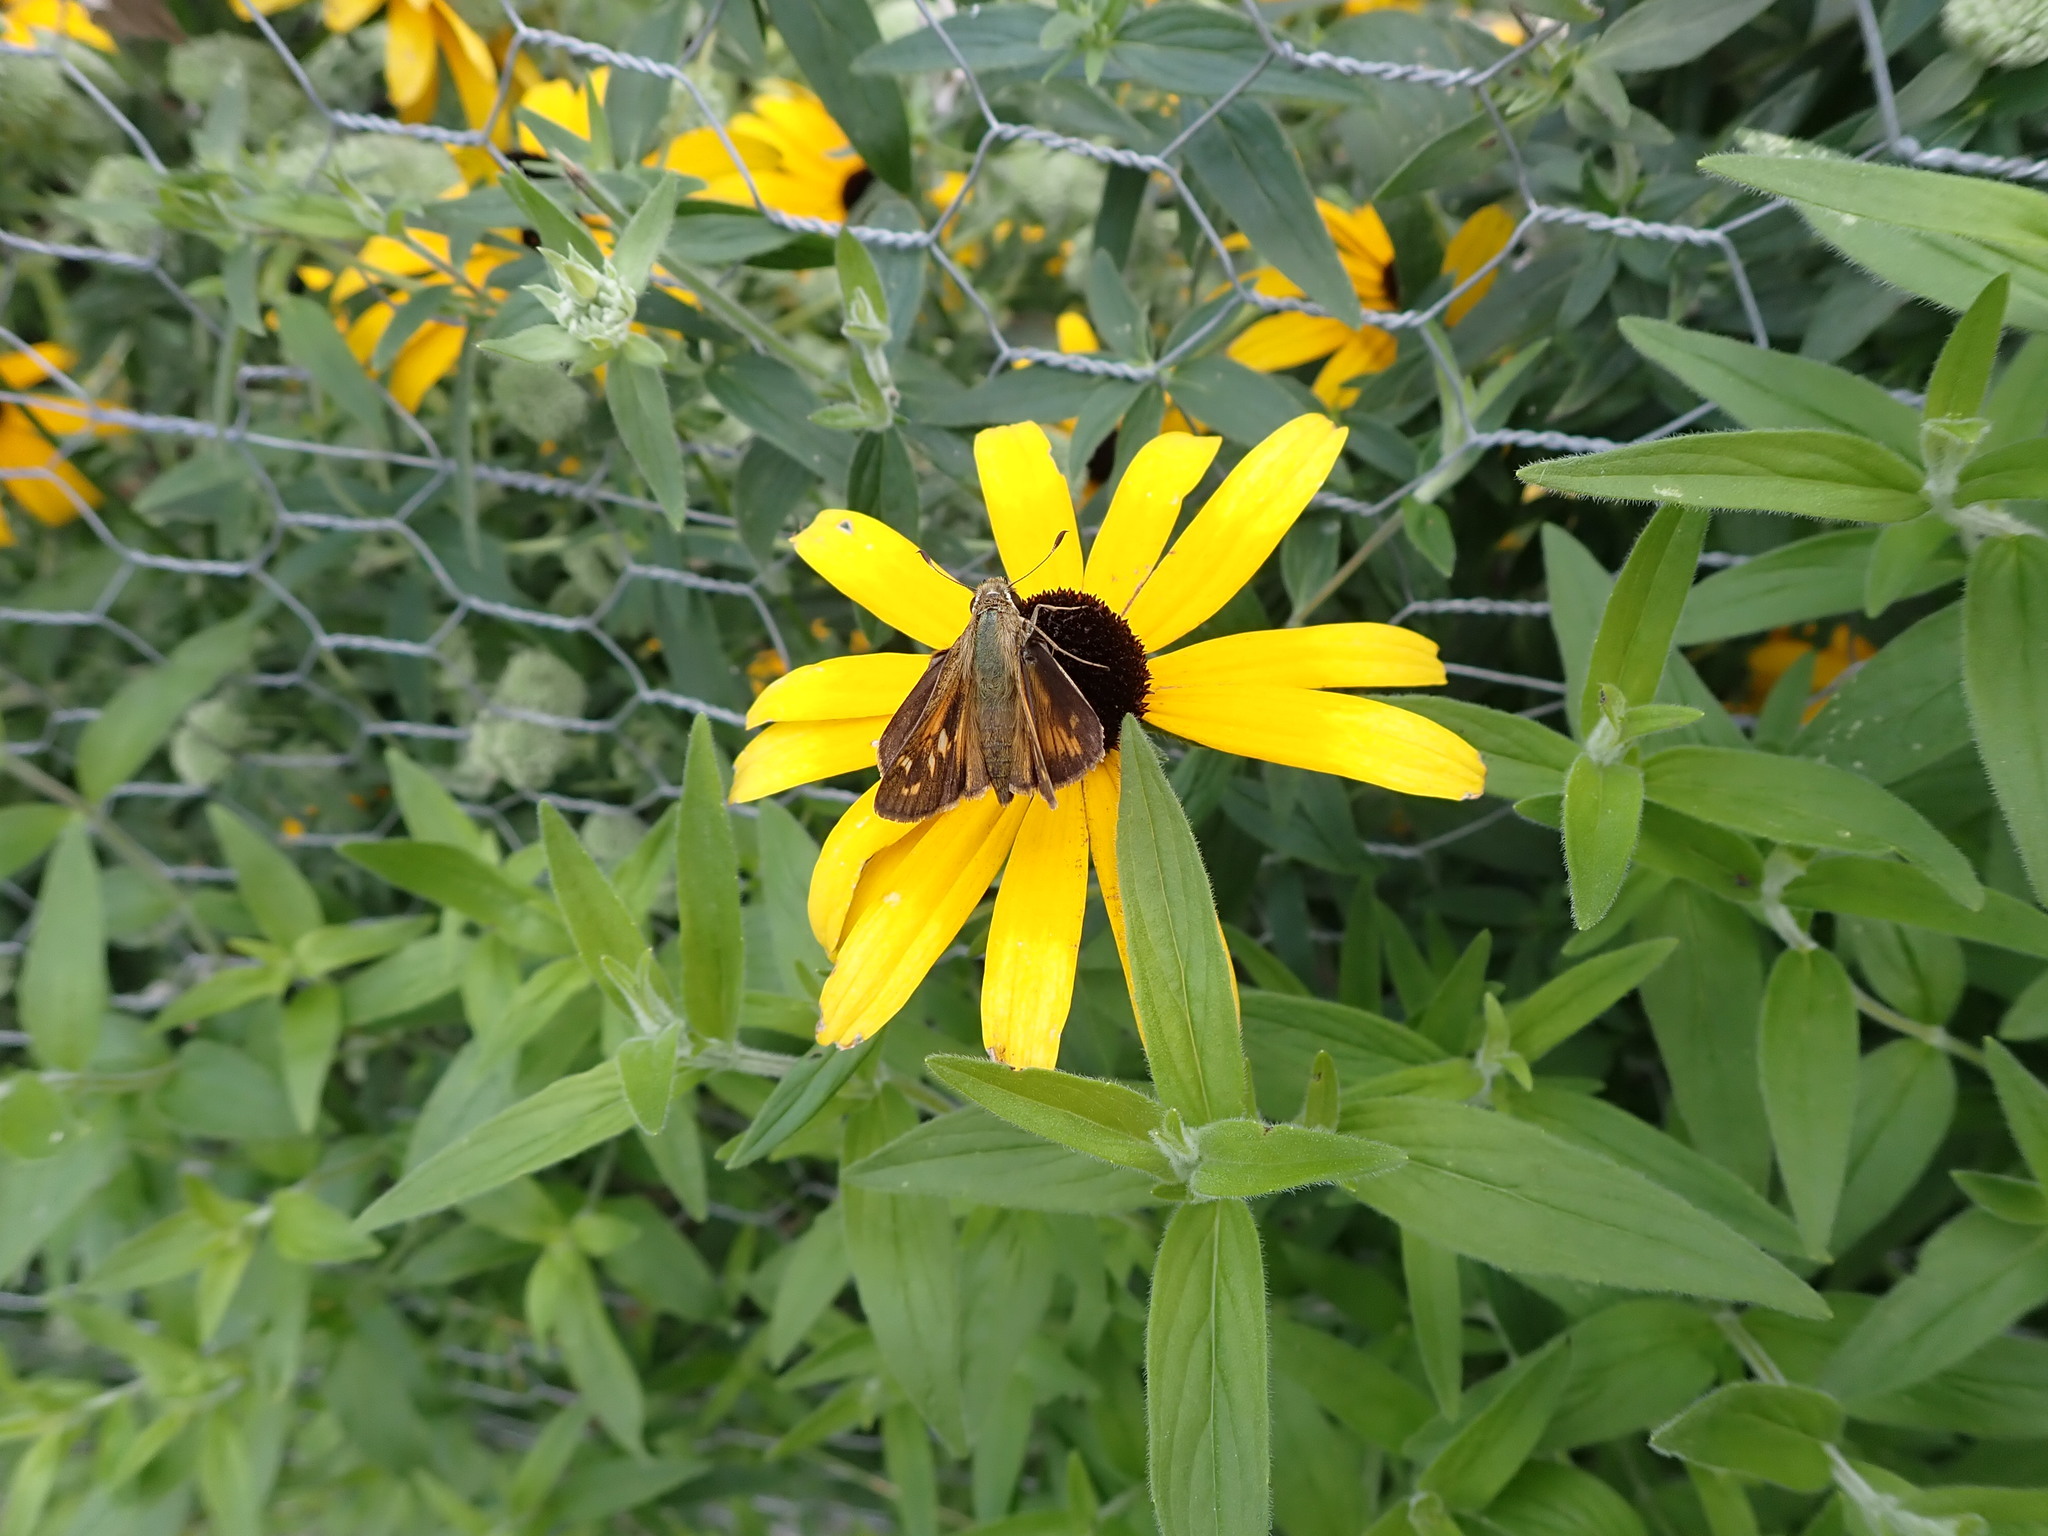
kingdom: Animalia
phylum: Arthropoda
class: Insecta
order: Lepidoptera
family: Hesperiidae
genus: Atalopedes
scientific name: Atalopedes
